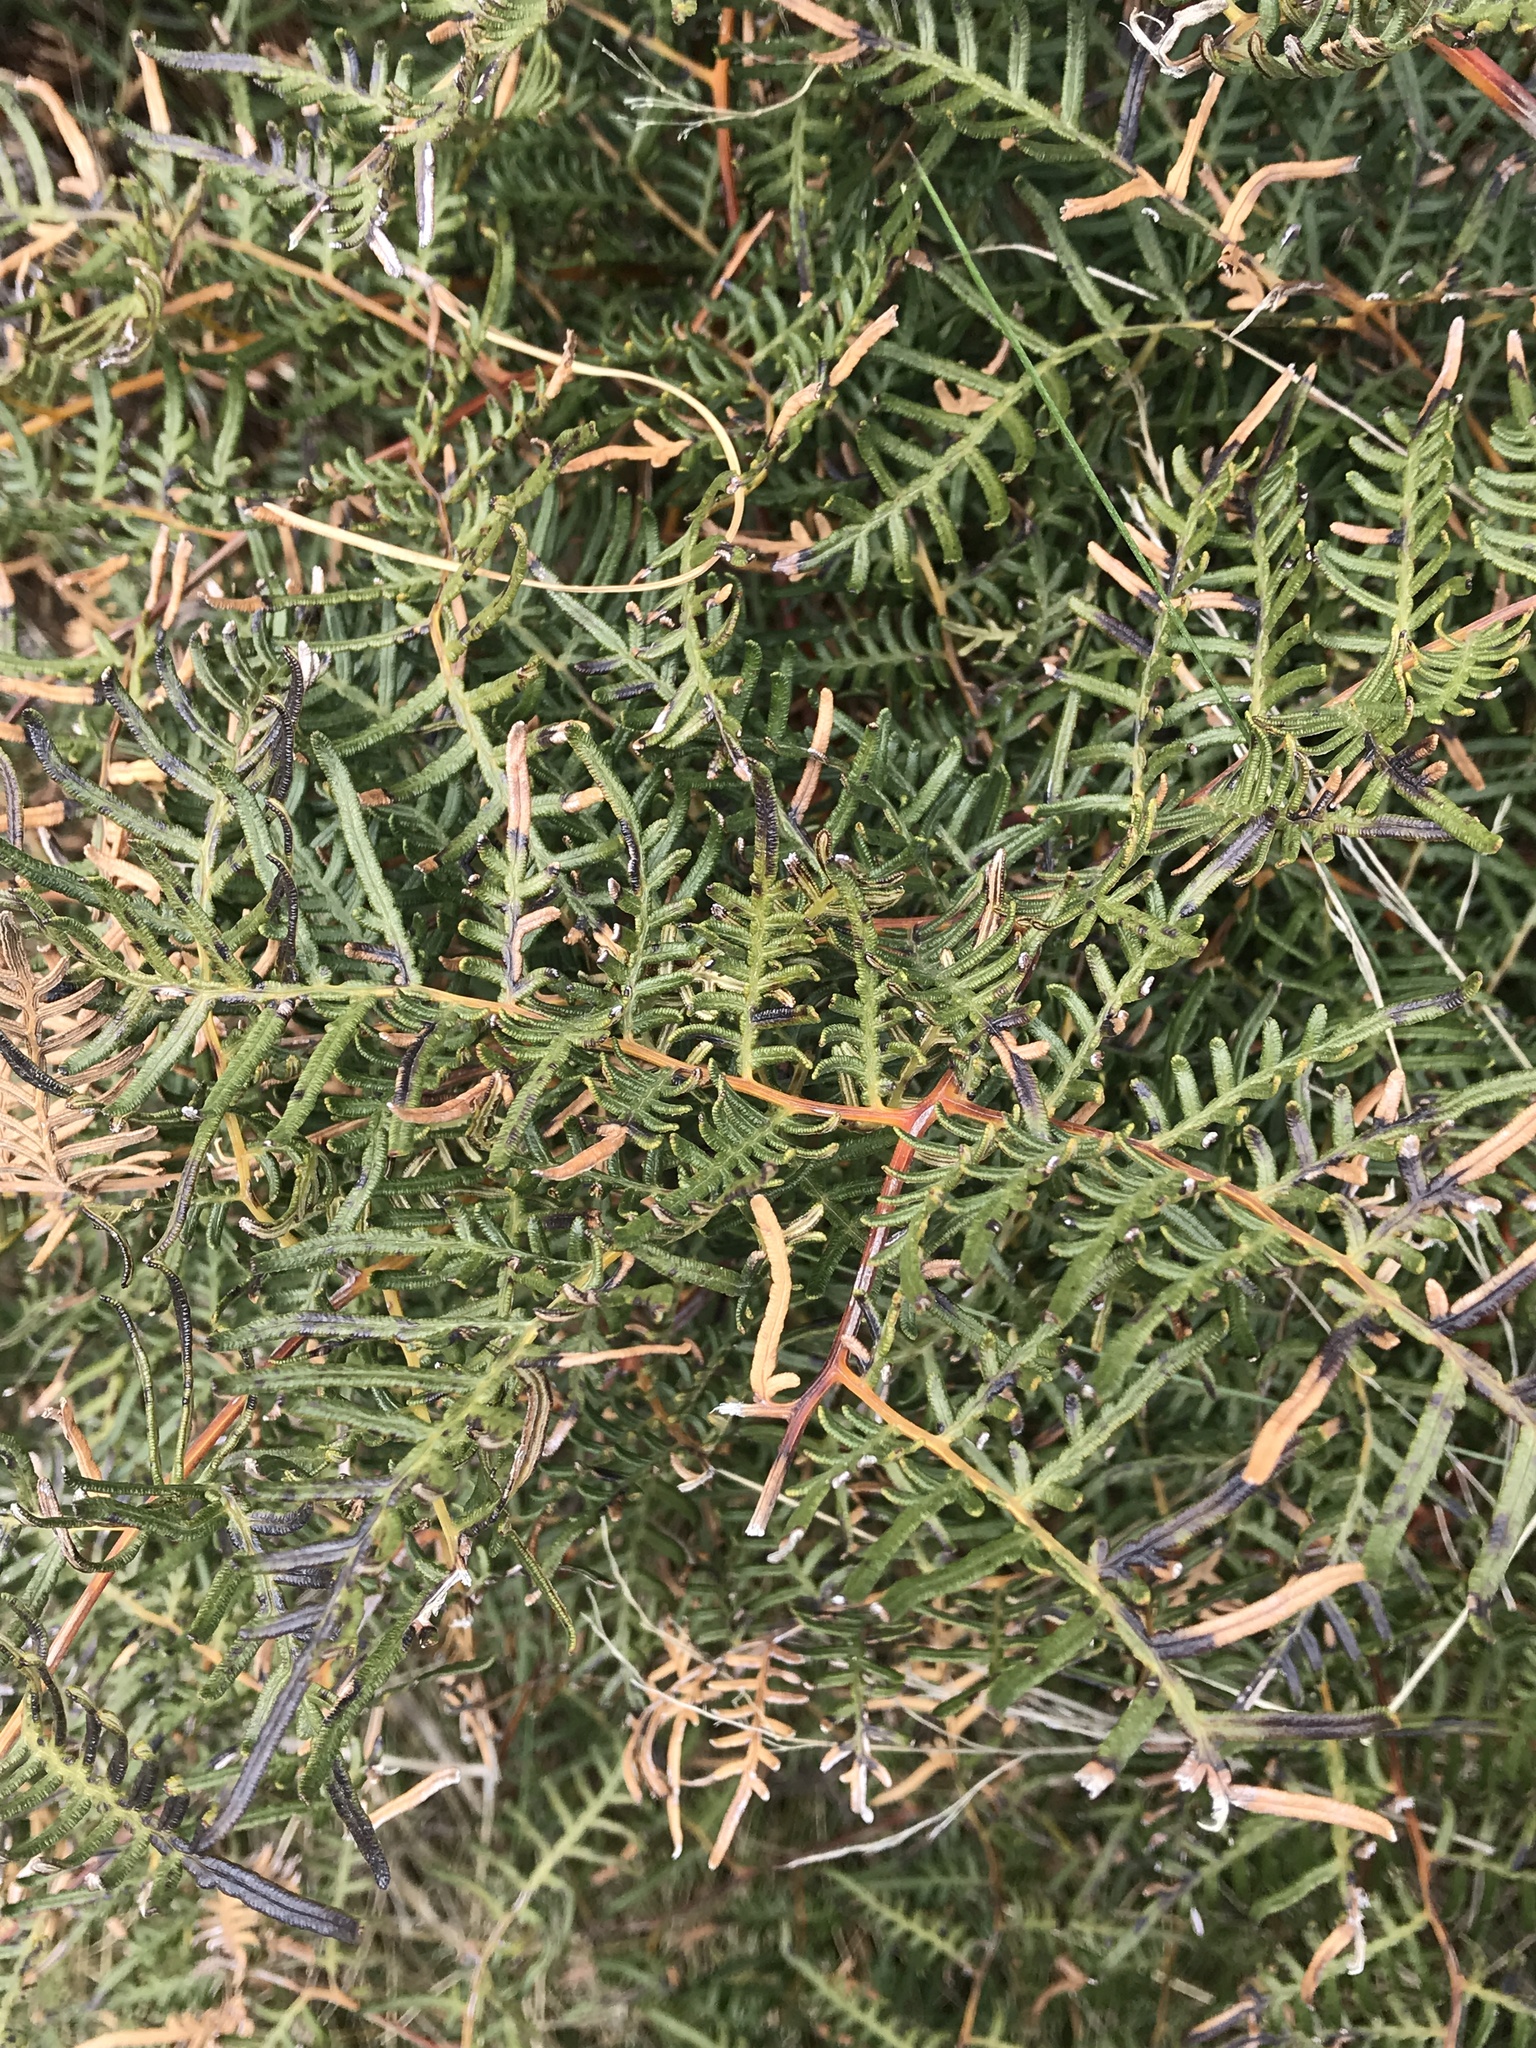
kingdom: Plantae
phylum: Tracheophyta
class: Polypodiopsida
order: Polypodiales
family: Dennstaedtiaceae
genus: Pteridium
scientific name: Pteridium esculentum
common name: Bracken fern
